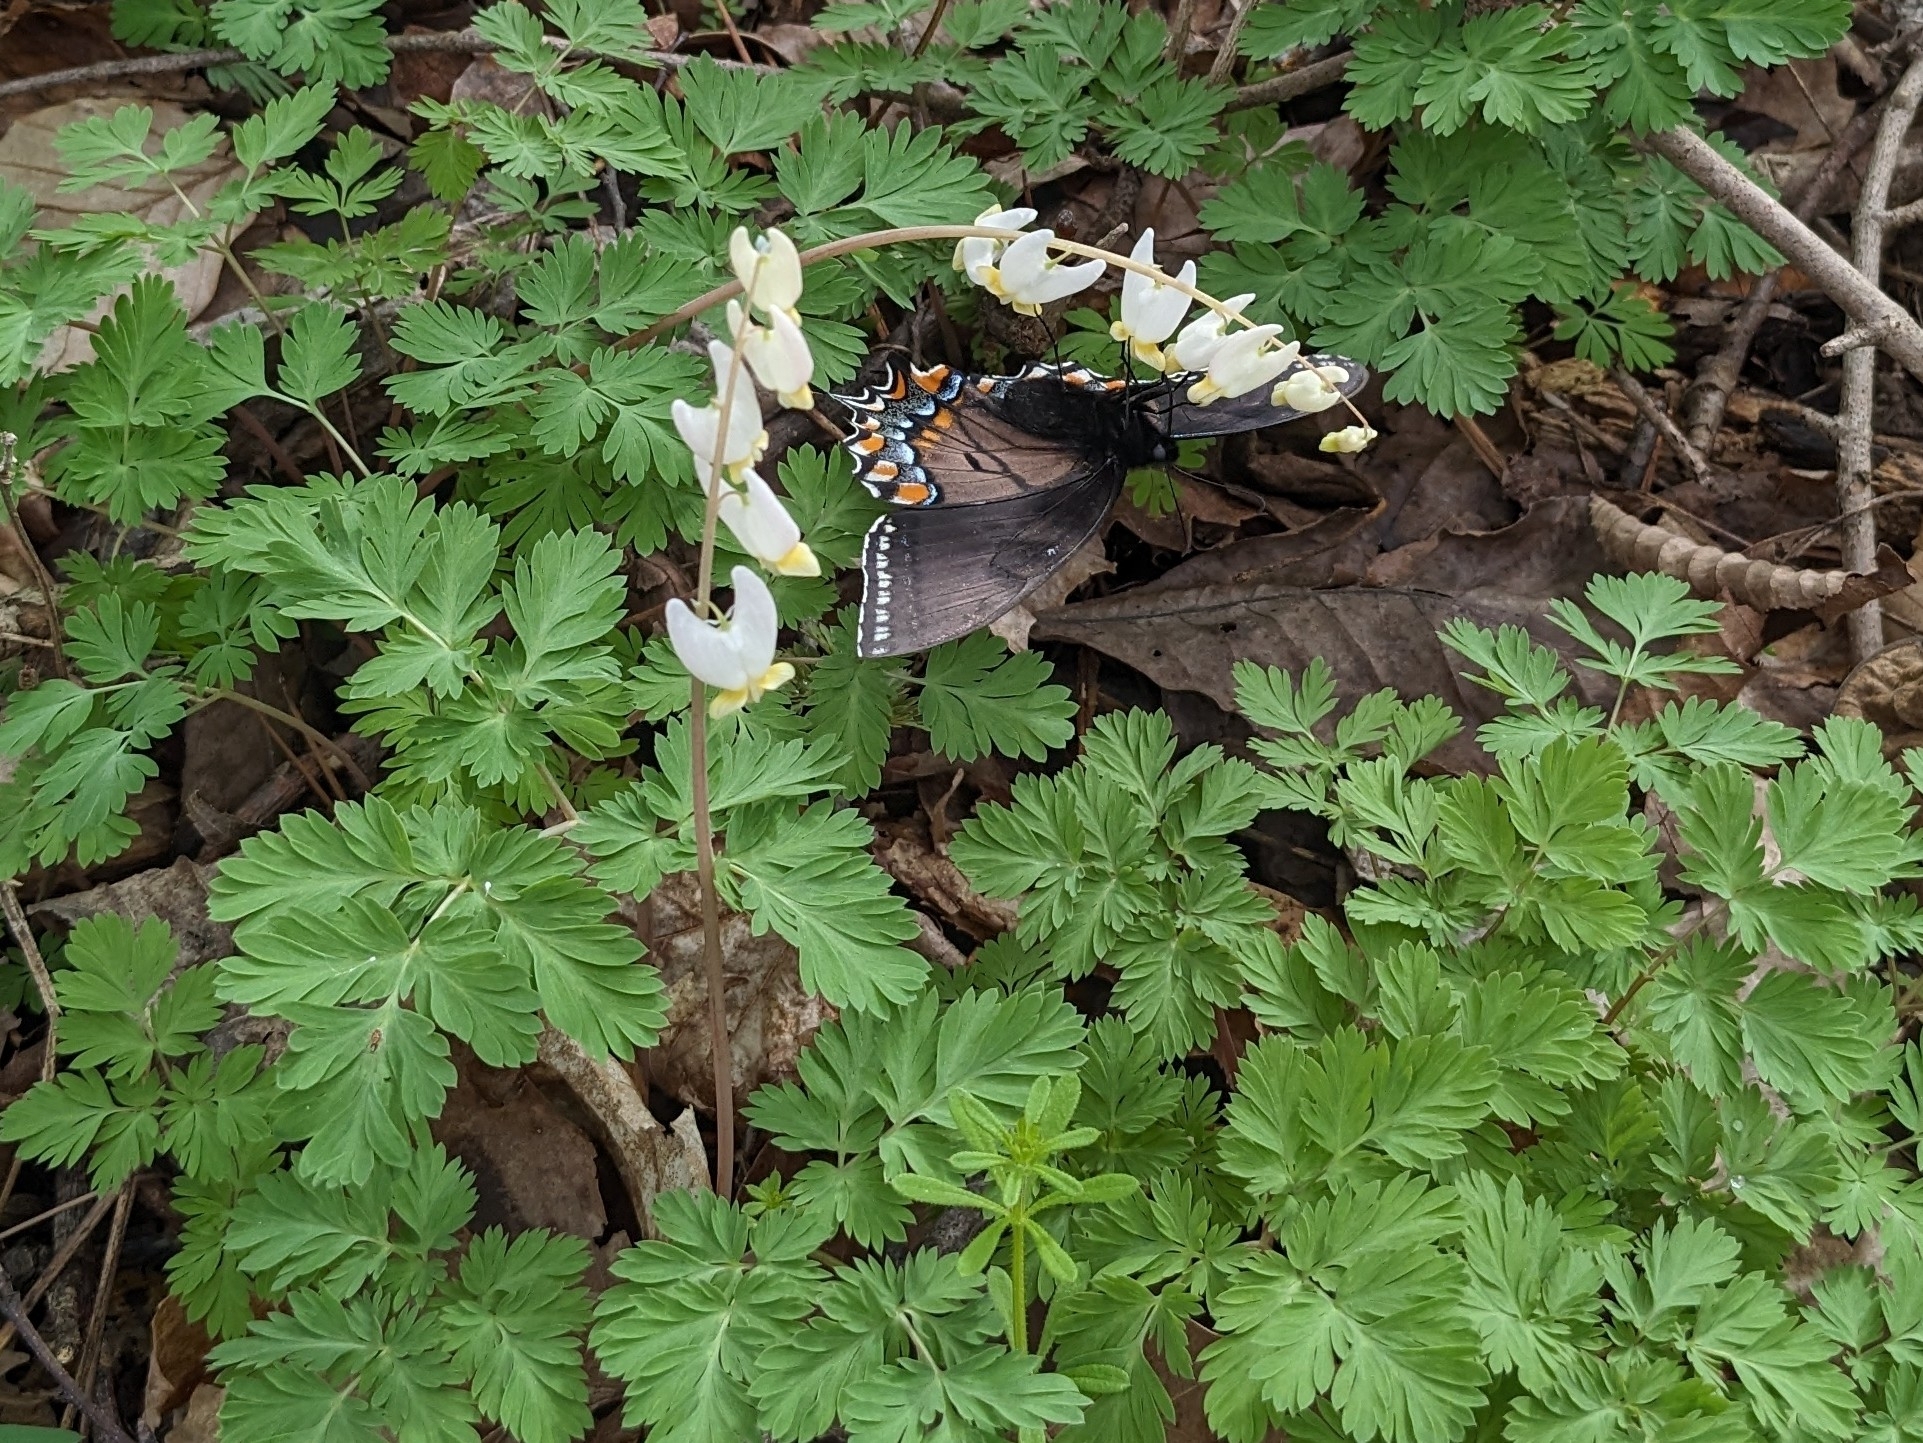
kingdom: Animalia
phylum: Arthropoda
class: Insecta
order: Lepidoptera
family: Papilionidae
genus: Papilio
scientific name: Papilio glaucus
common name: Tiger swallowtail
